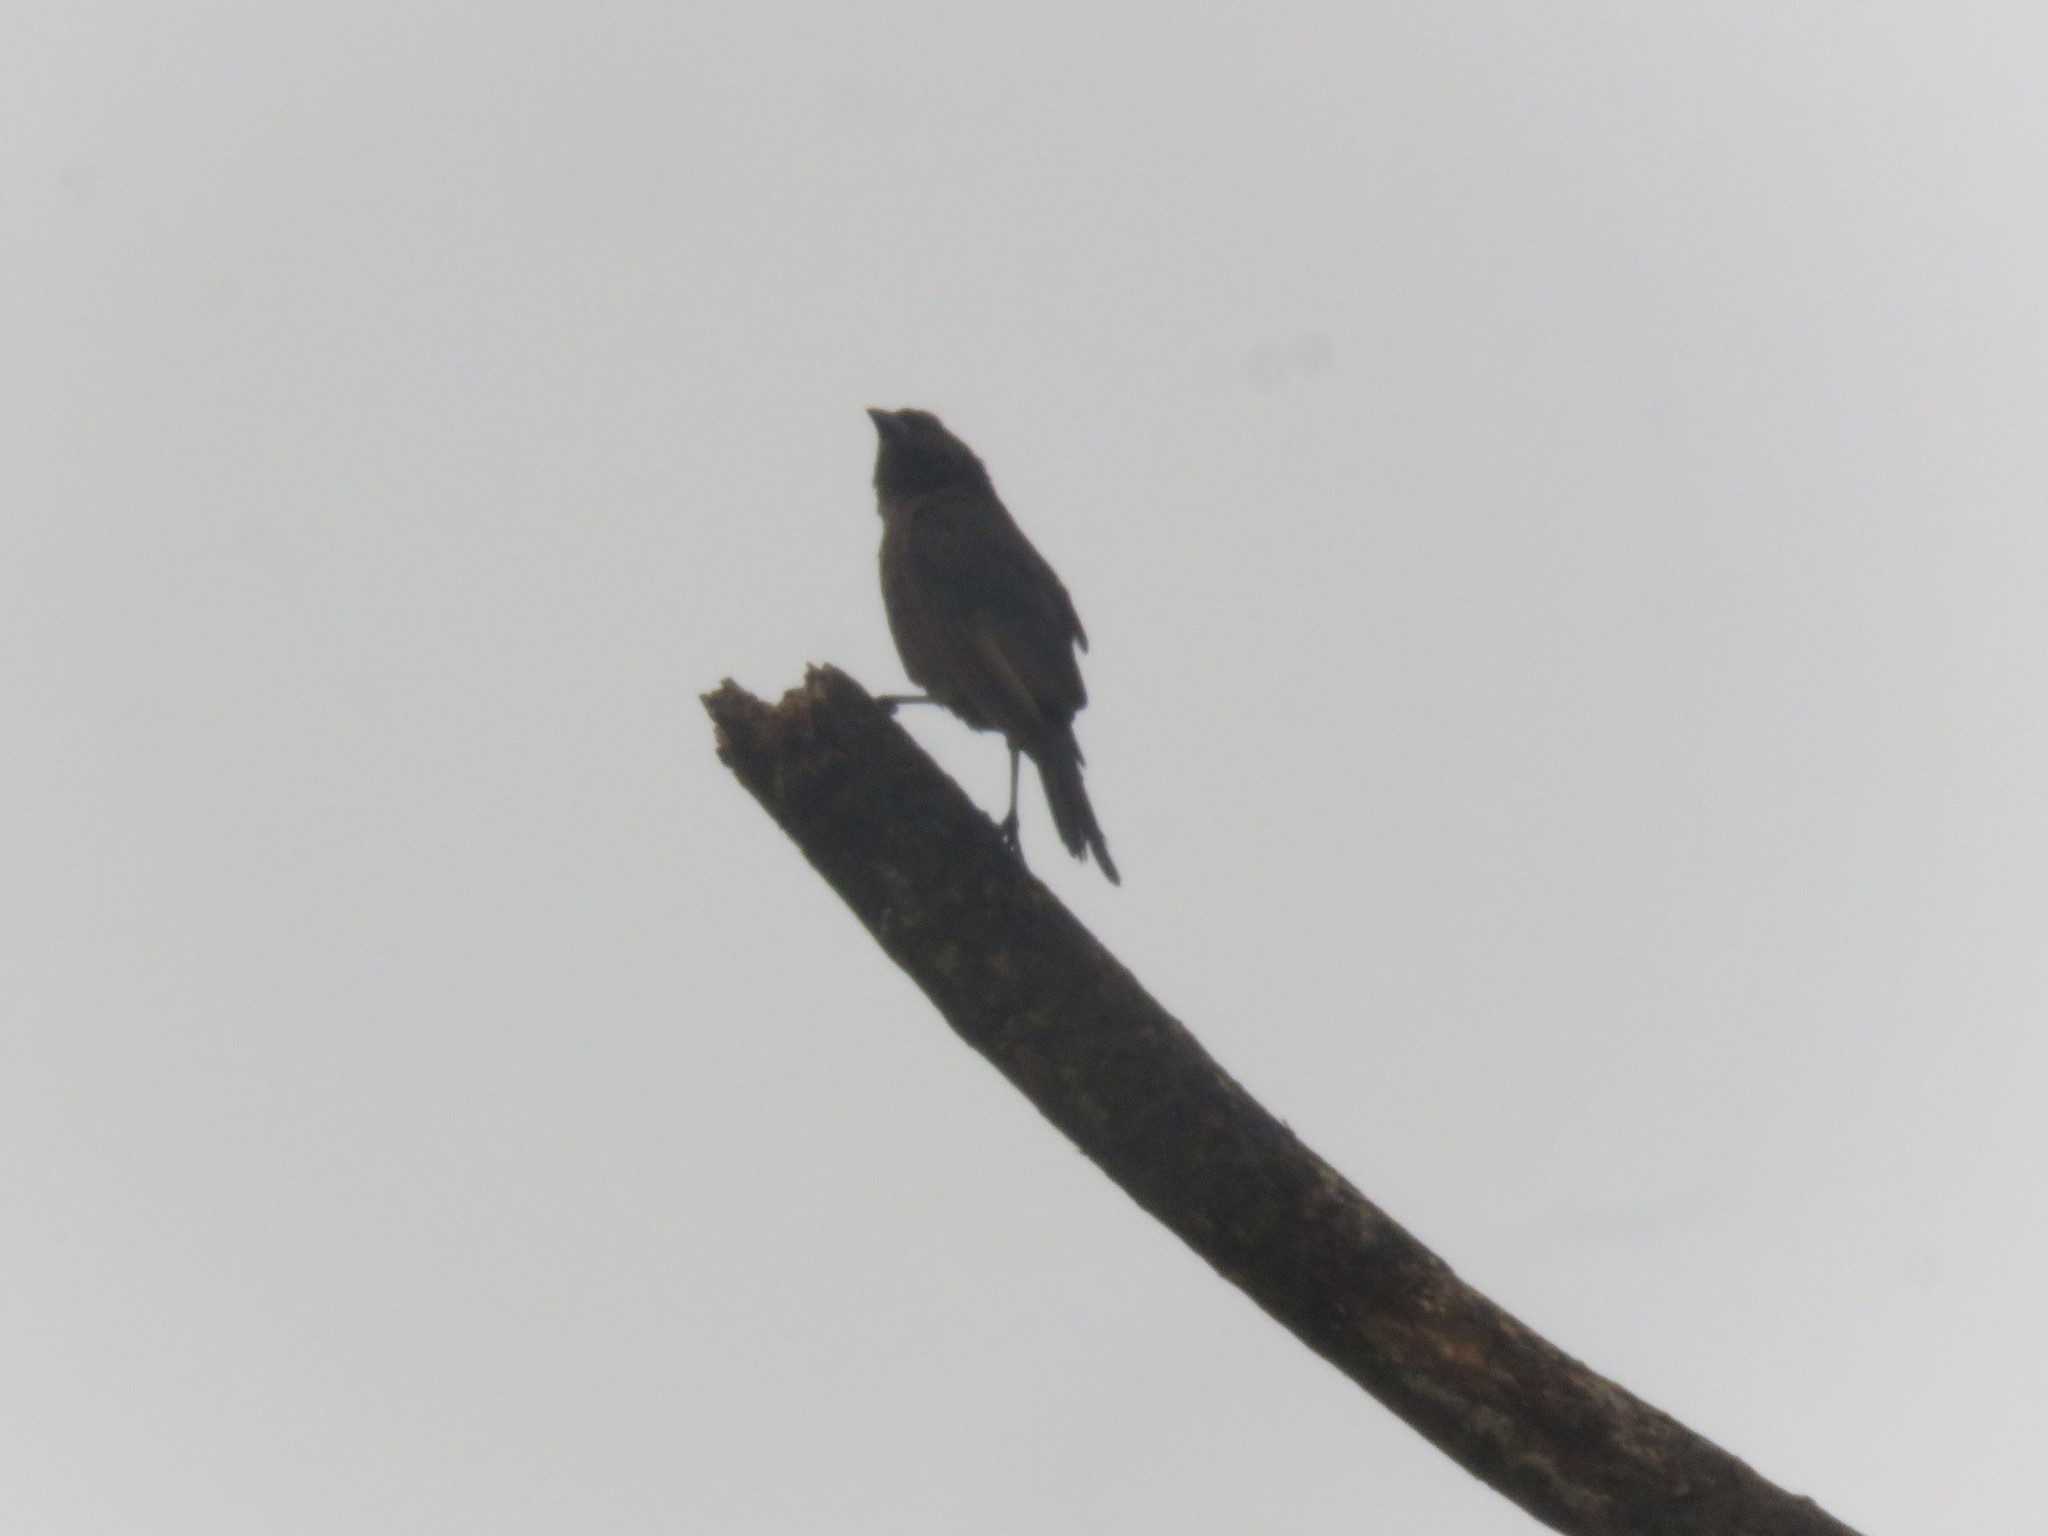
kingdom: Animalia
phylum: Chordata
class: Aves
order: Passeriformes
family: Icteridae
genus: Molothrus
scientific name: Molothrus bonariensis
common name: Shiny cowbird
